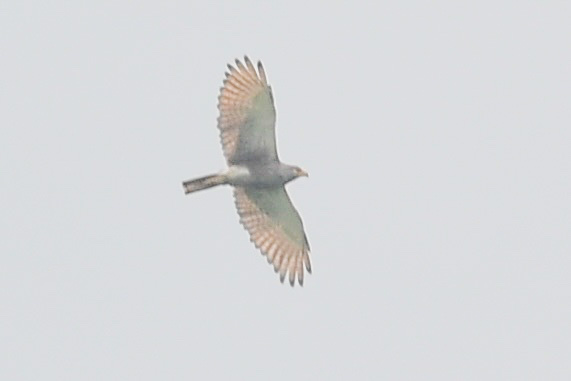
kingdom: Animalia
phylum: Chordata
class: Aves
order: Accipitriformes
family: Accipitridae
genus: Butastur
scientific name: Butastur liventer
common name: Rufous-winged buzzard
